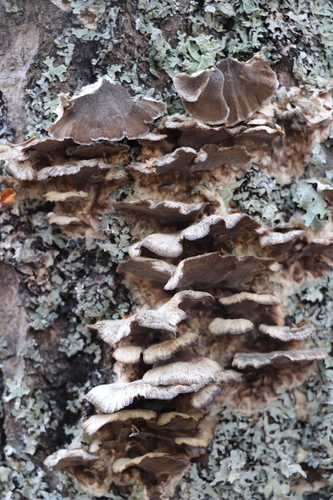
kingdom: Fungi
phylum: Basidiomycota
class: Agaricomycetes
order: Polyporales
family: Phanerochaetaceae
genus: Bjerkandera
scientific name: Bjerkandera adusta
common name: Smoky bracket
